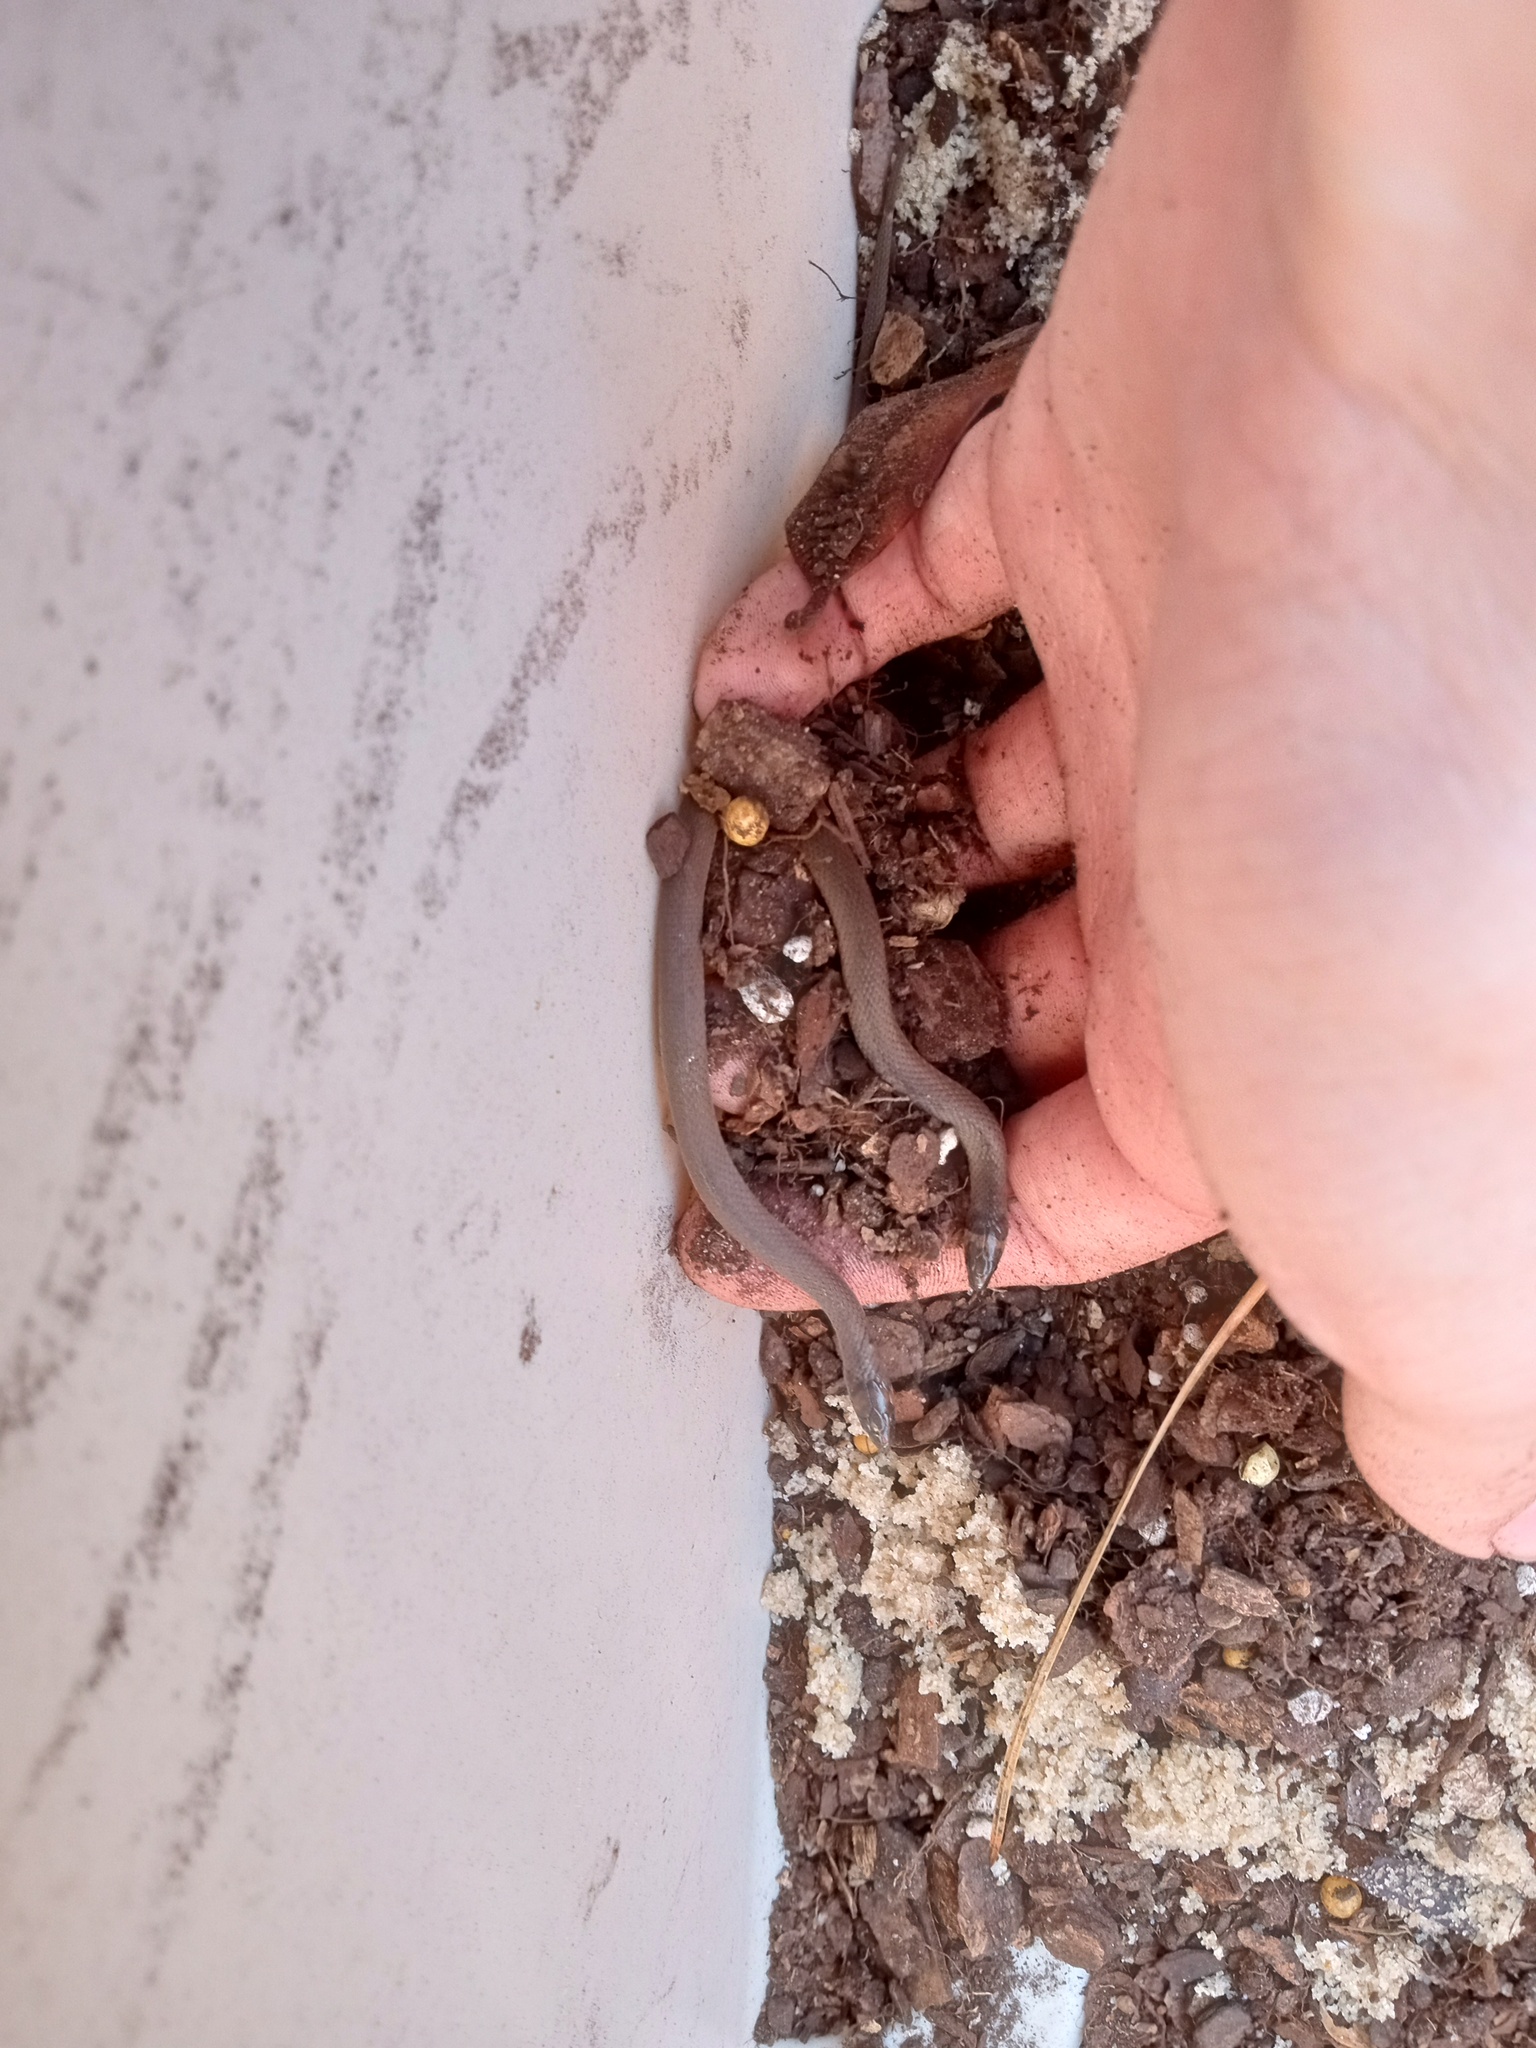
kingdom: Animalia
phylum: Chordata
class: Squamata
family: Colubridae
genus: Haldea
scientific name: Haldea striatula
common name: Rough earth snake
